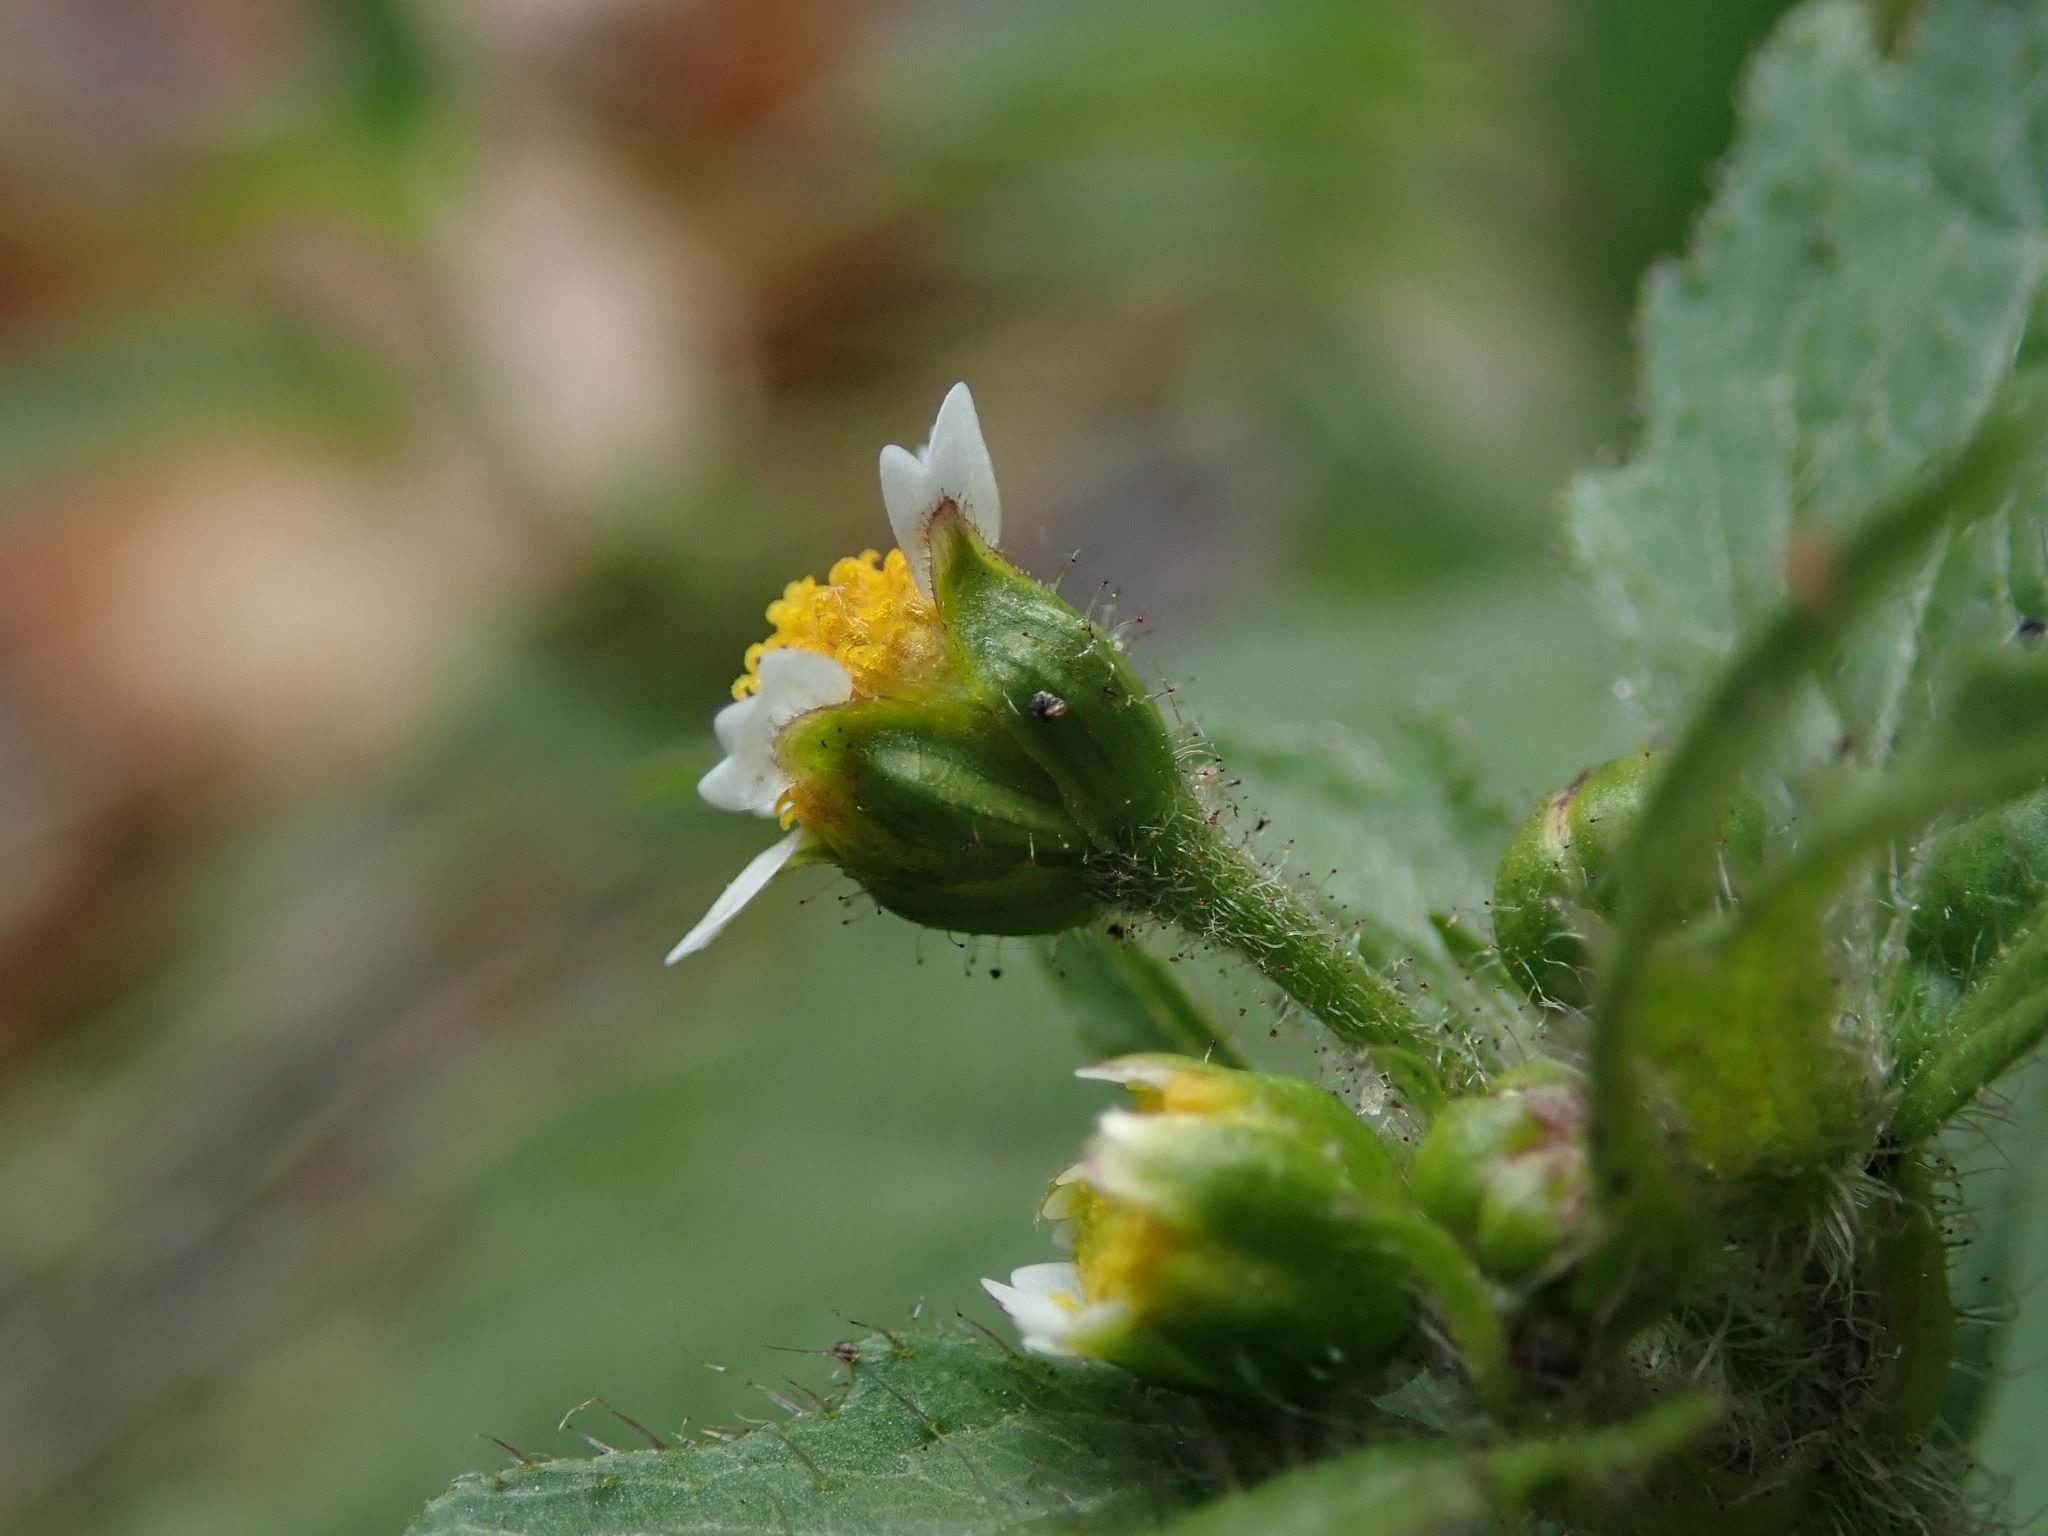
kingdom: Plantae
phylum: Tracheophyta
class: Magnoliopsida
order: Asterales
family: Asteraceae
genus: Galinsoga
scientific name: Galinsoga quadriradiata
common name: Shaggy soldier
